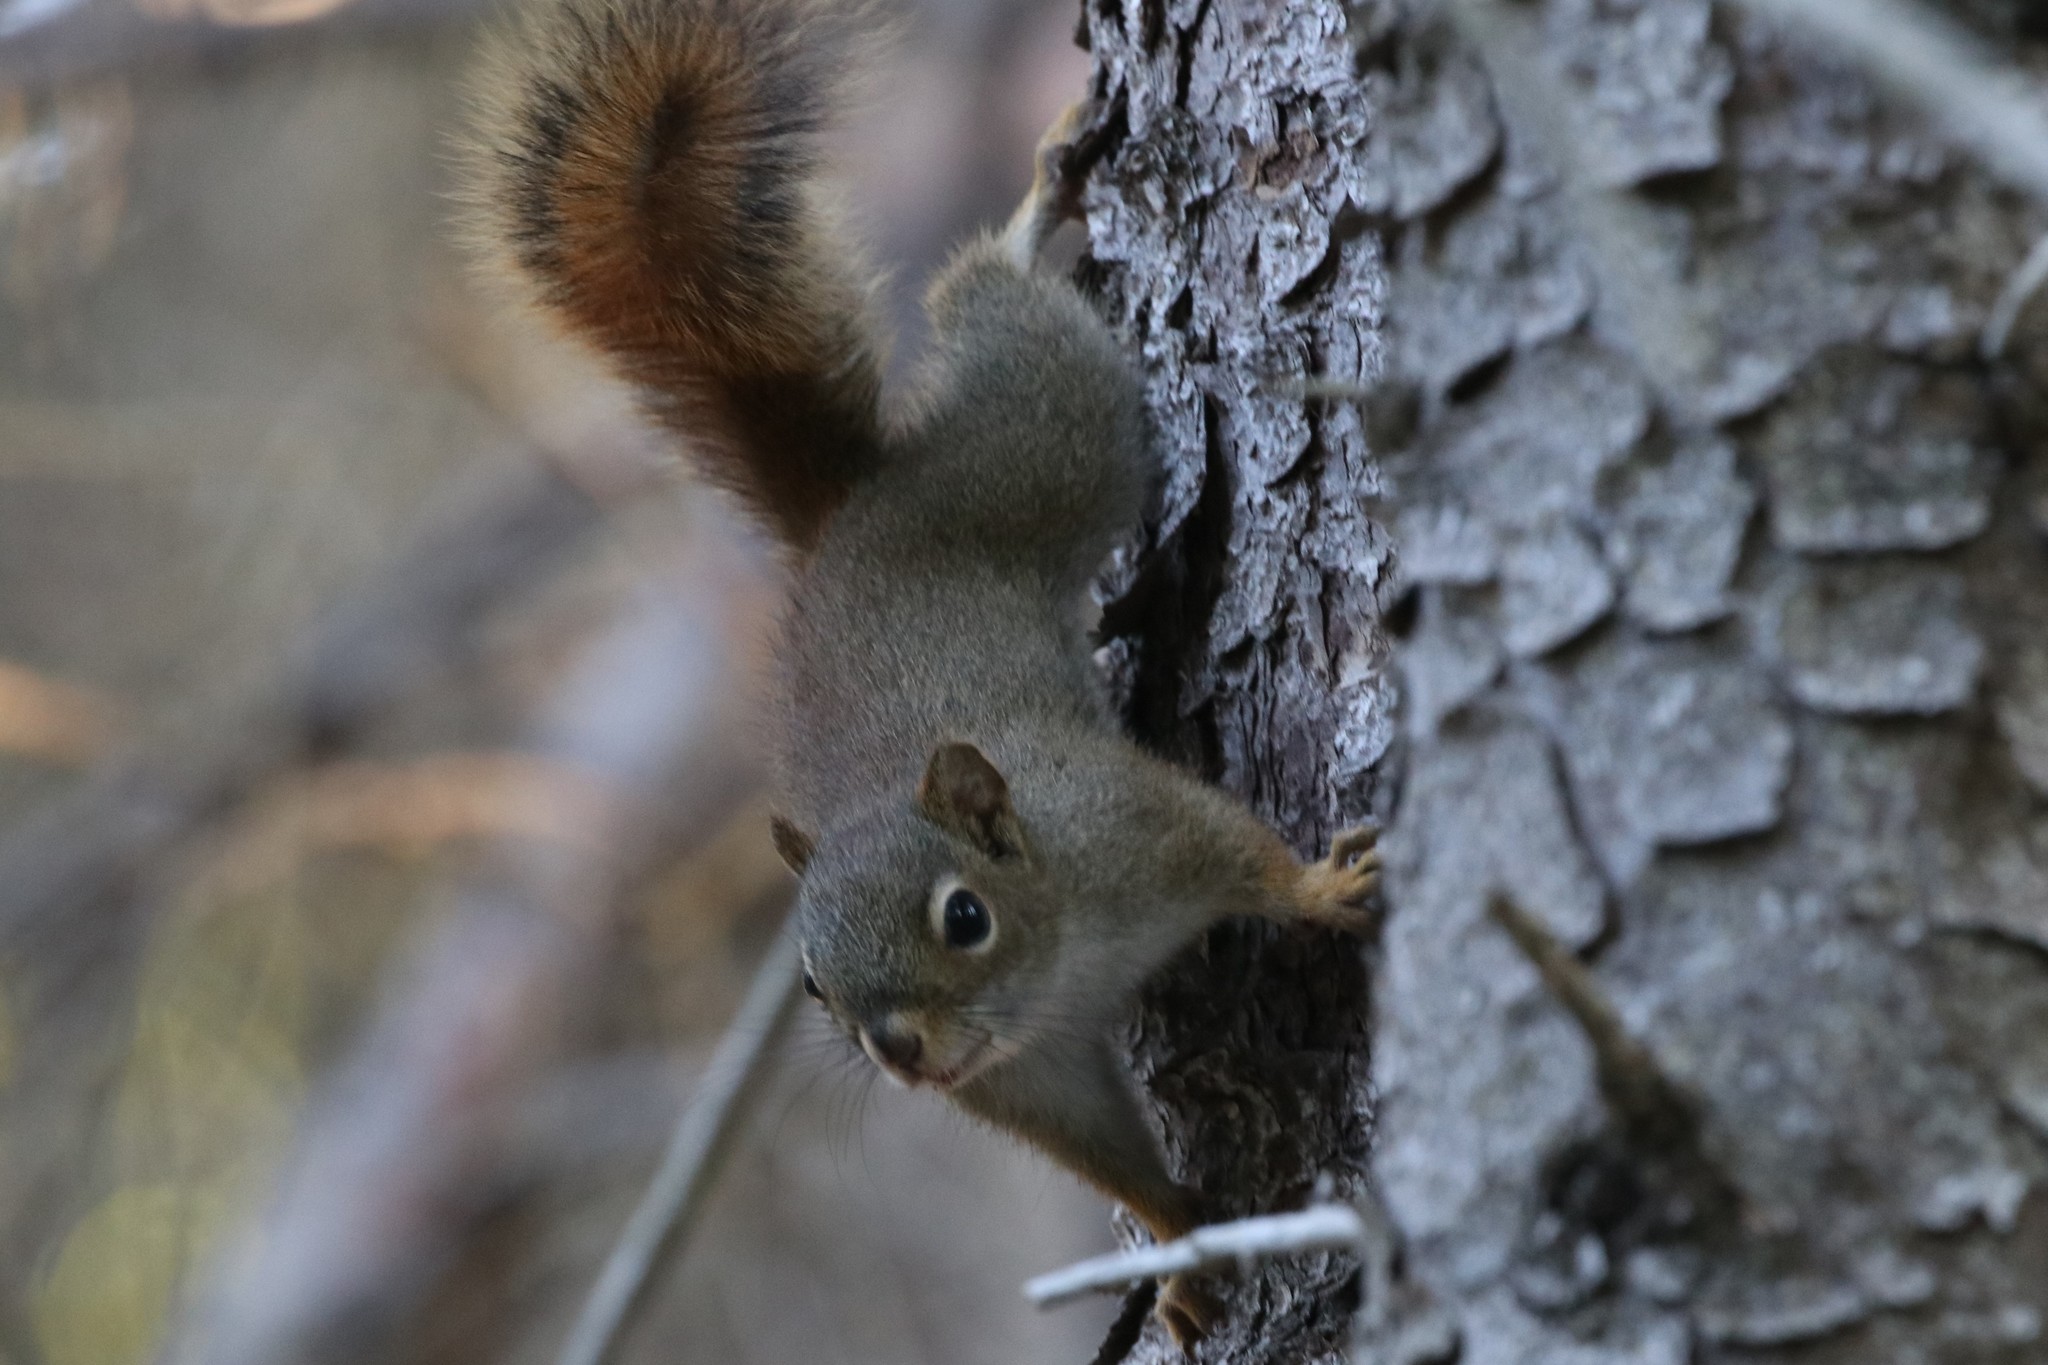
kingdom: Animalia
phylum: Chordata
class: Mammalia
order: Rodentia
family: Sciuridae
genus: Tamiasciurus
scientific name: Tamiasciurus hudsonicus
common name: Red squirrel
